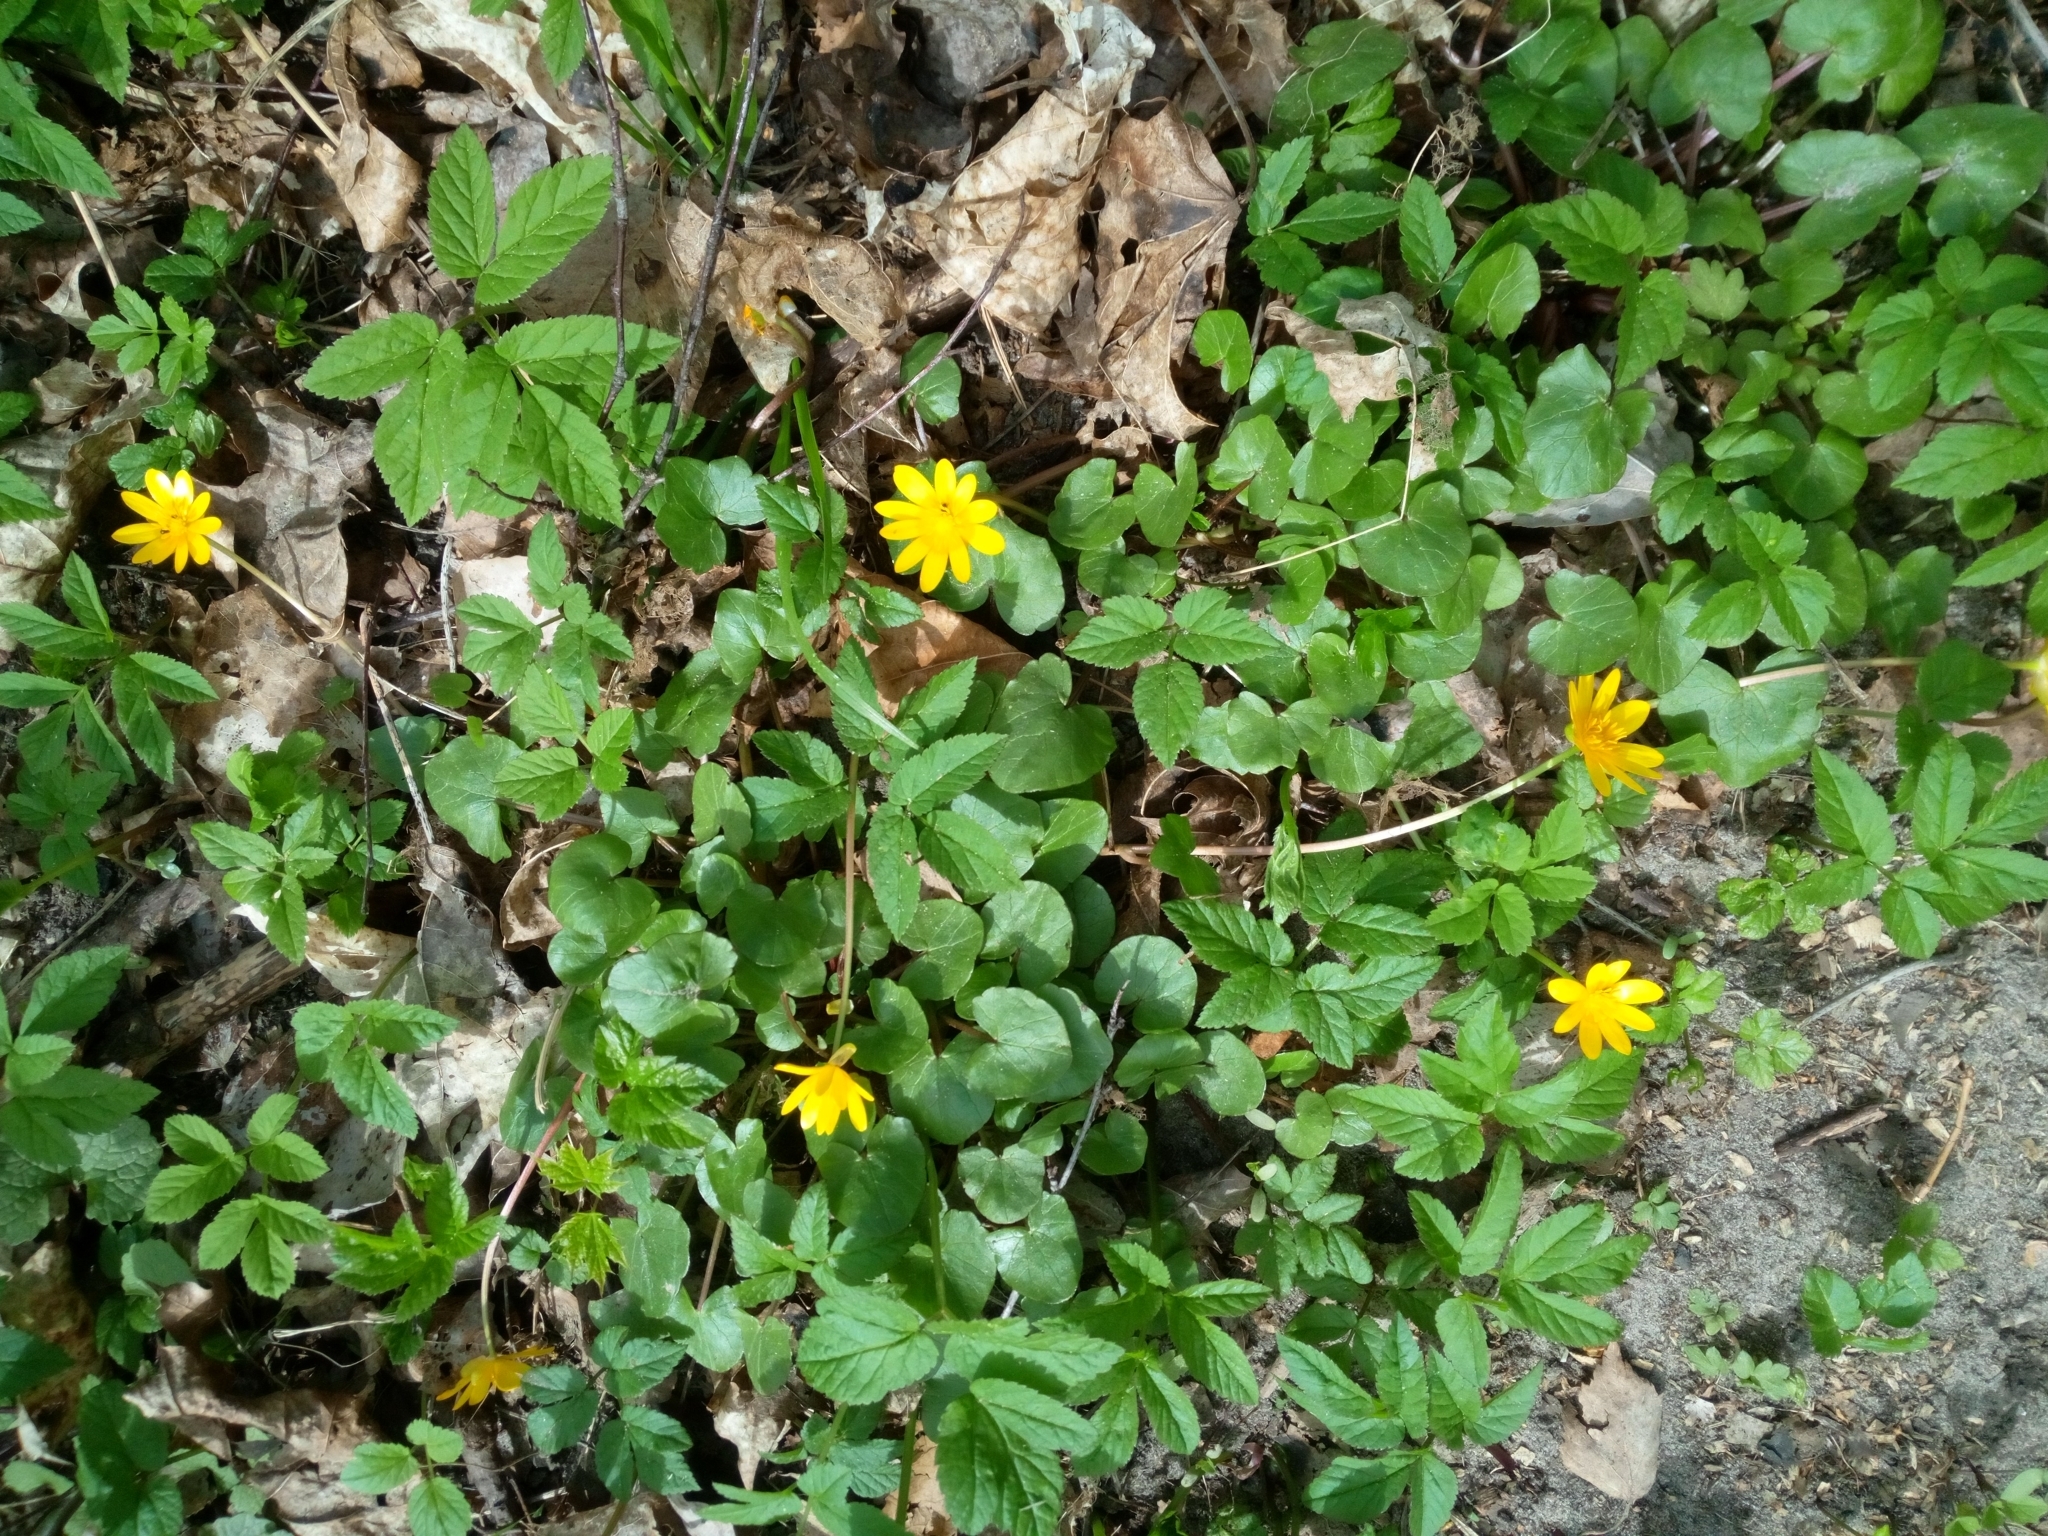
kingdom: Plantae
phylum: Tracheophyta
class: Magnoliopsida
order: Ranunculales
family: Ranunculaceae
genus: Ficaria
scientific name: Ficaria verna
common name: Lesser celandine
